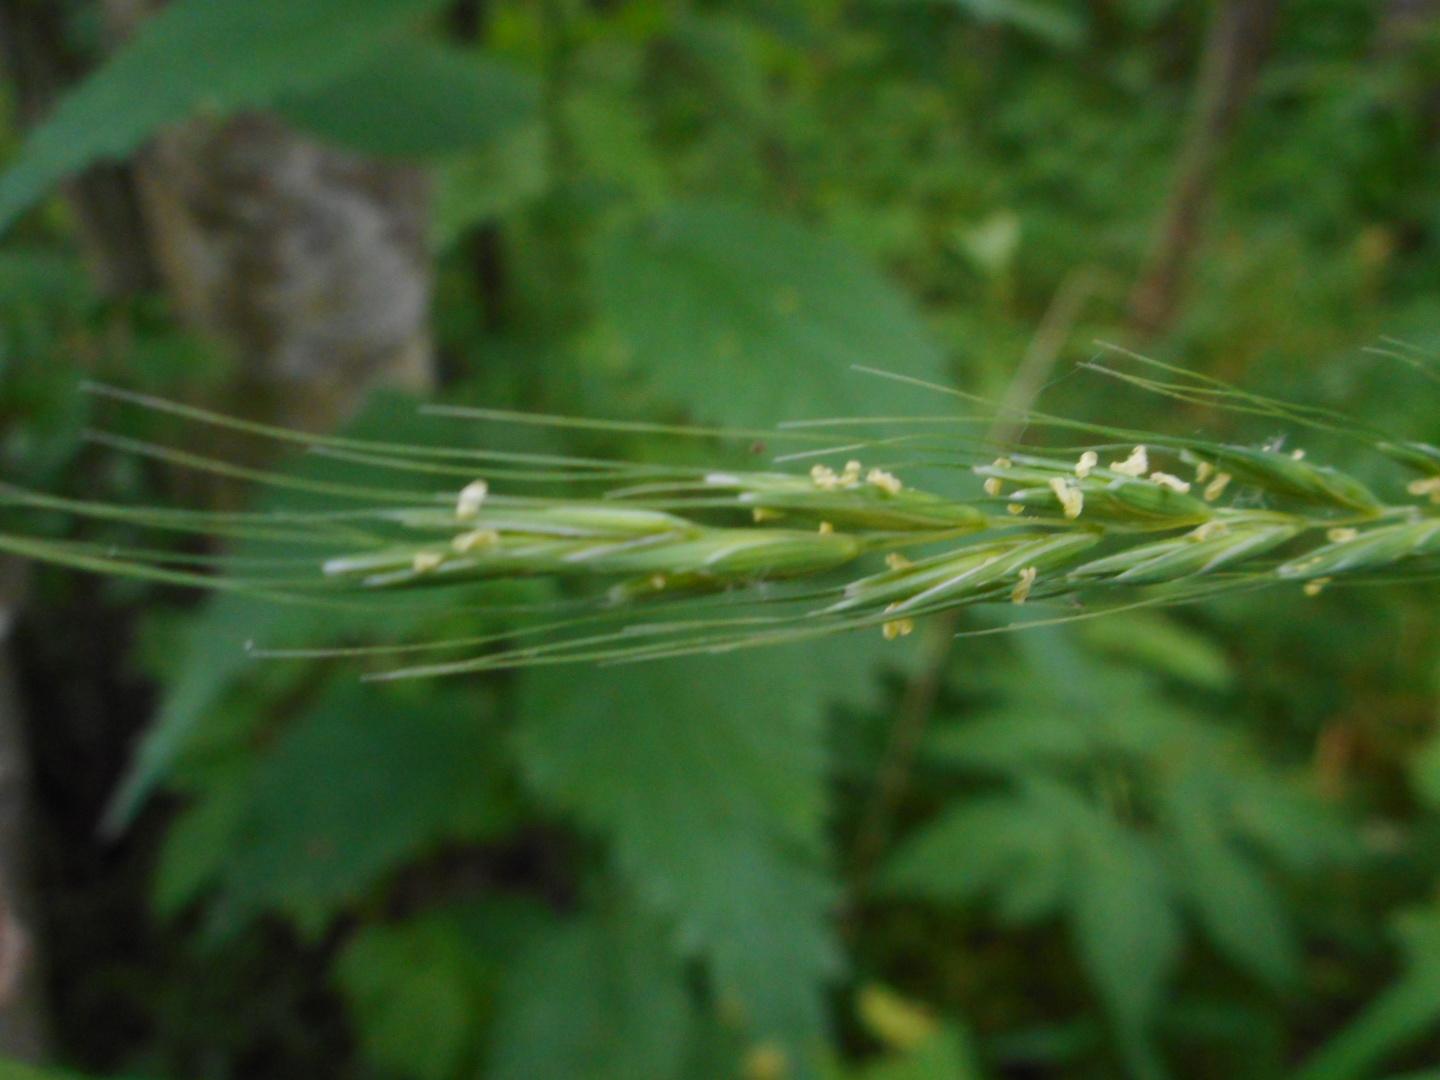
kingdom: Plantae
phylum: Tracheophyta
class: Liliopsida
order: Poales
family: Poaceae
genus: Elymus
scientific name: Elymus caninus
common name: Bearded couch
